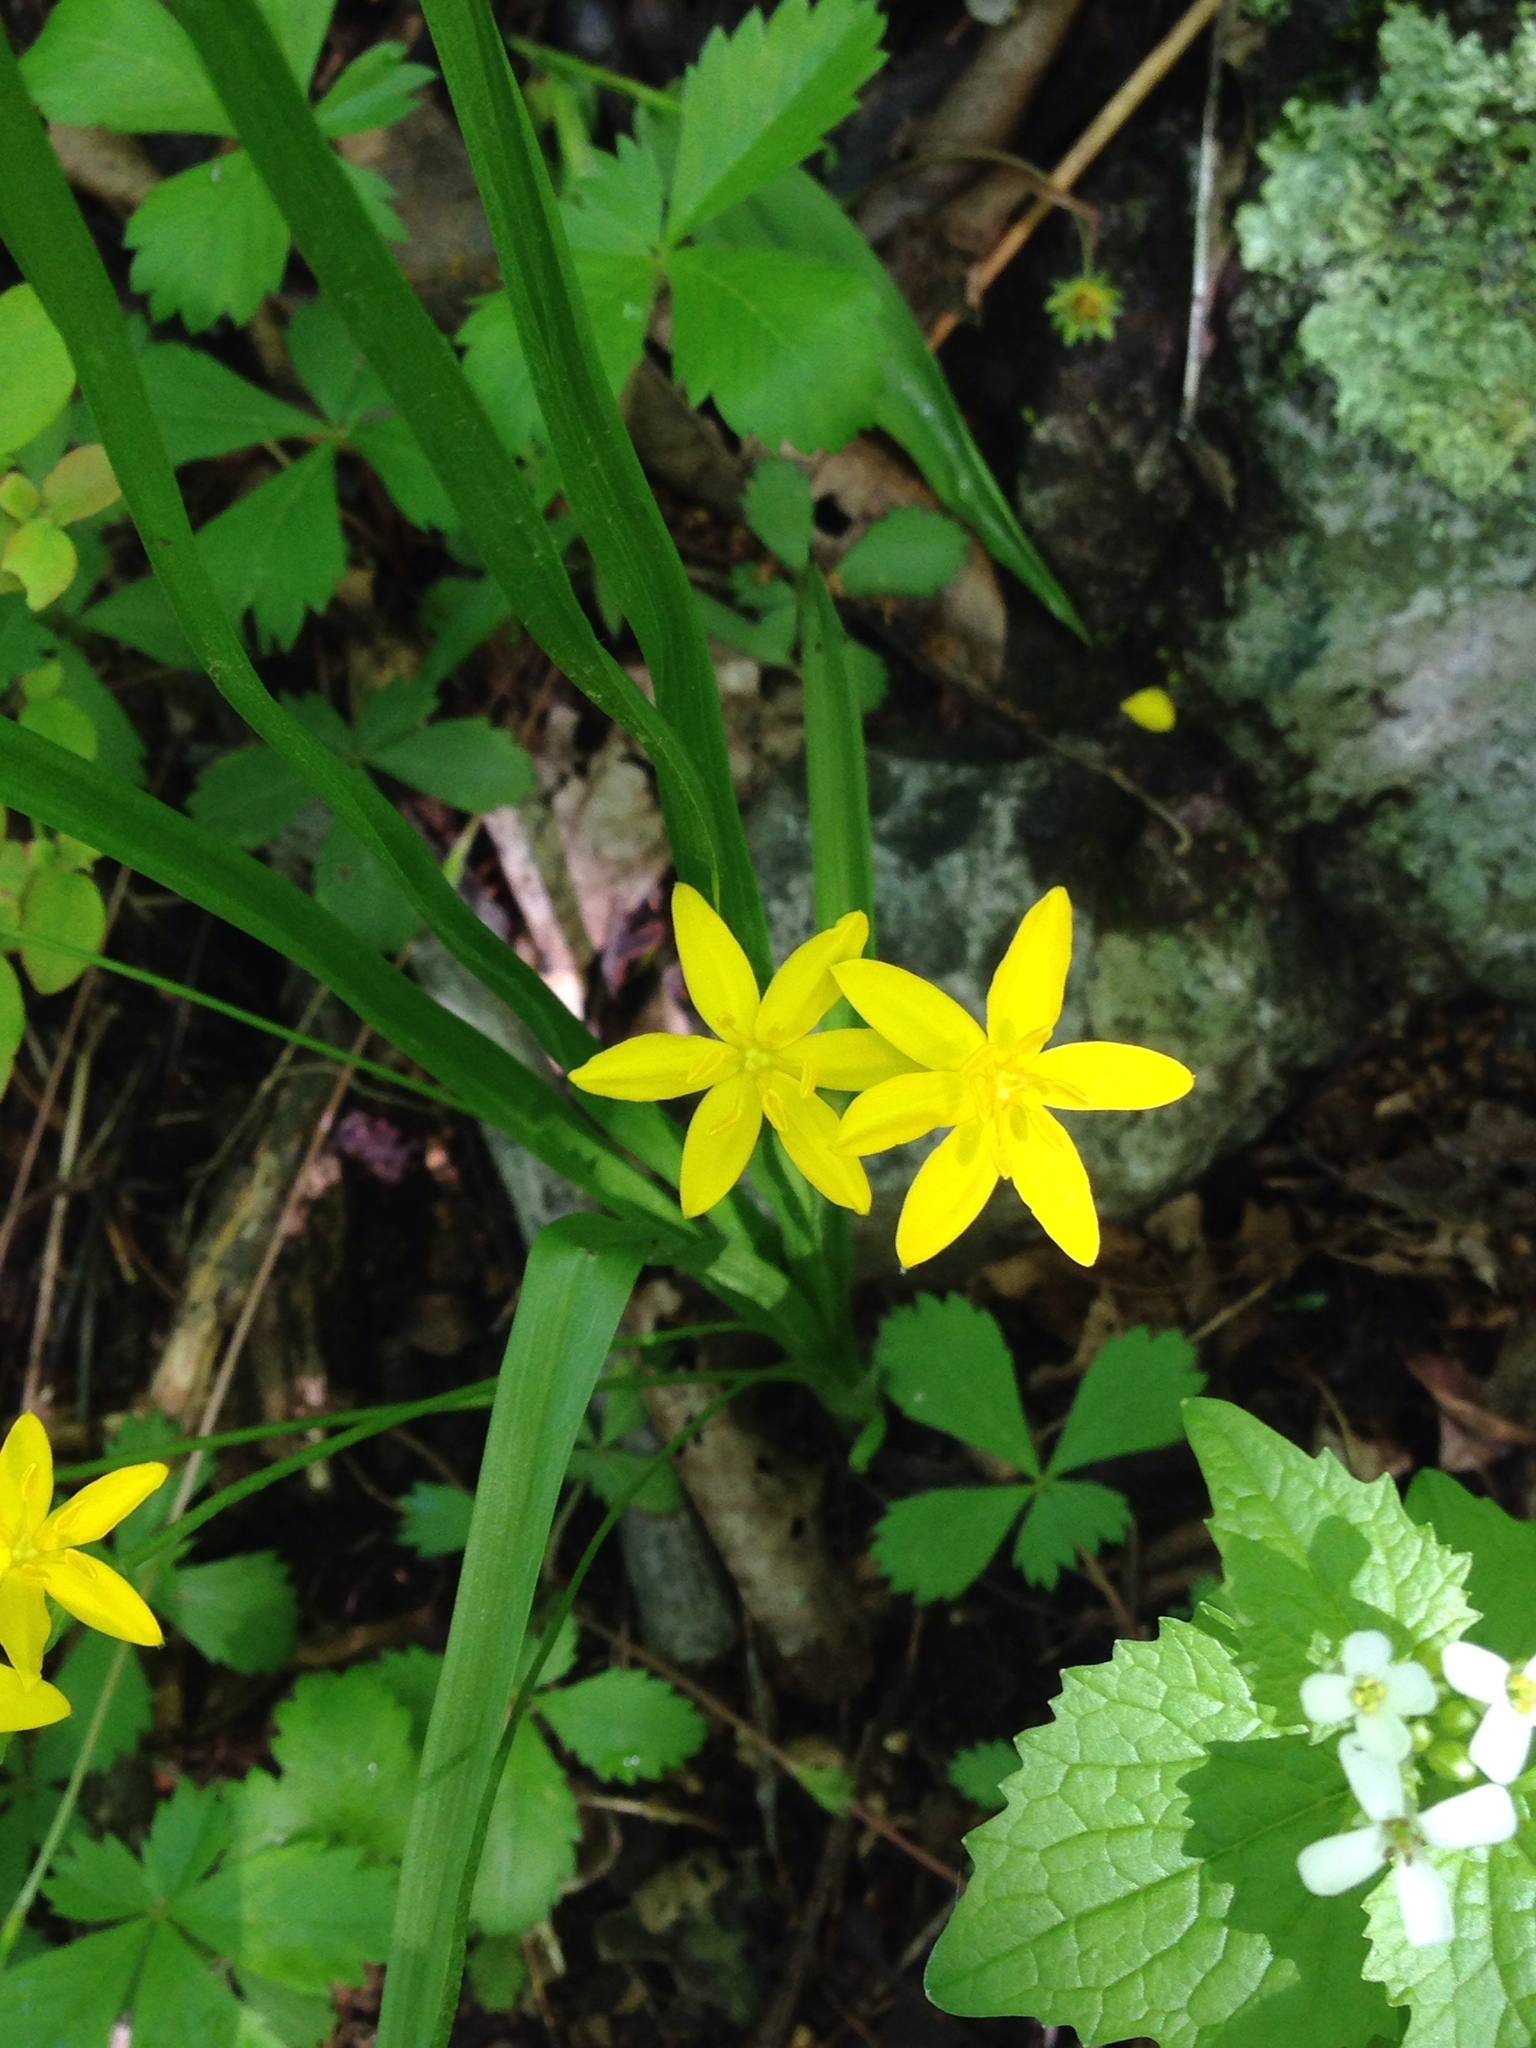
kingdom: Plantae
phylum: Tracheophyta
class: Liliopsida
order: Asparagales
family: Hypoxidaceae
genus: Hypoxis
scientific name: Hypoxis hirsuta
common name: Common goldstar
